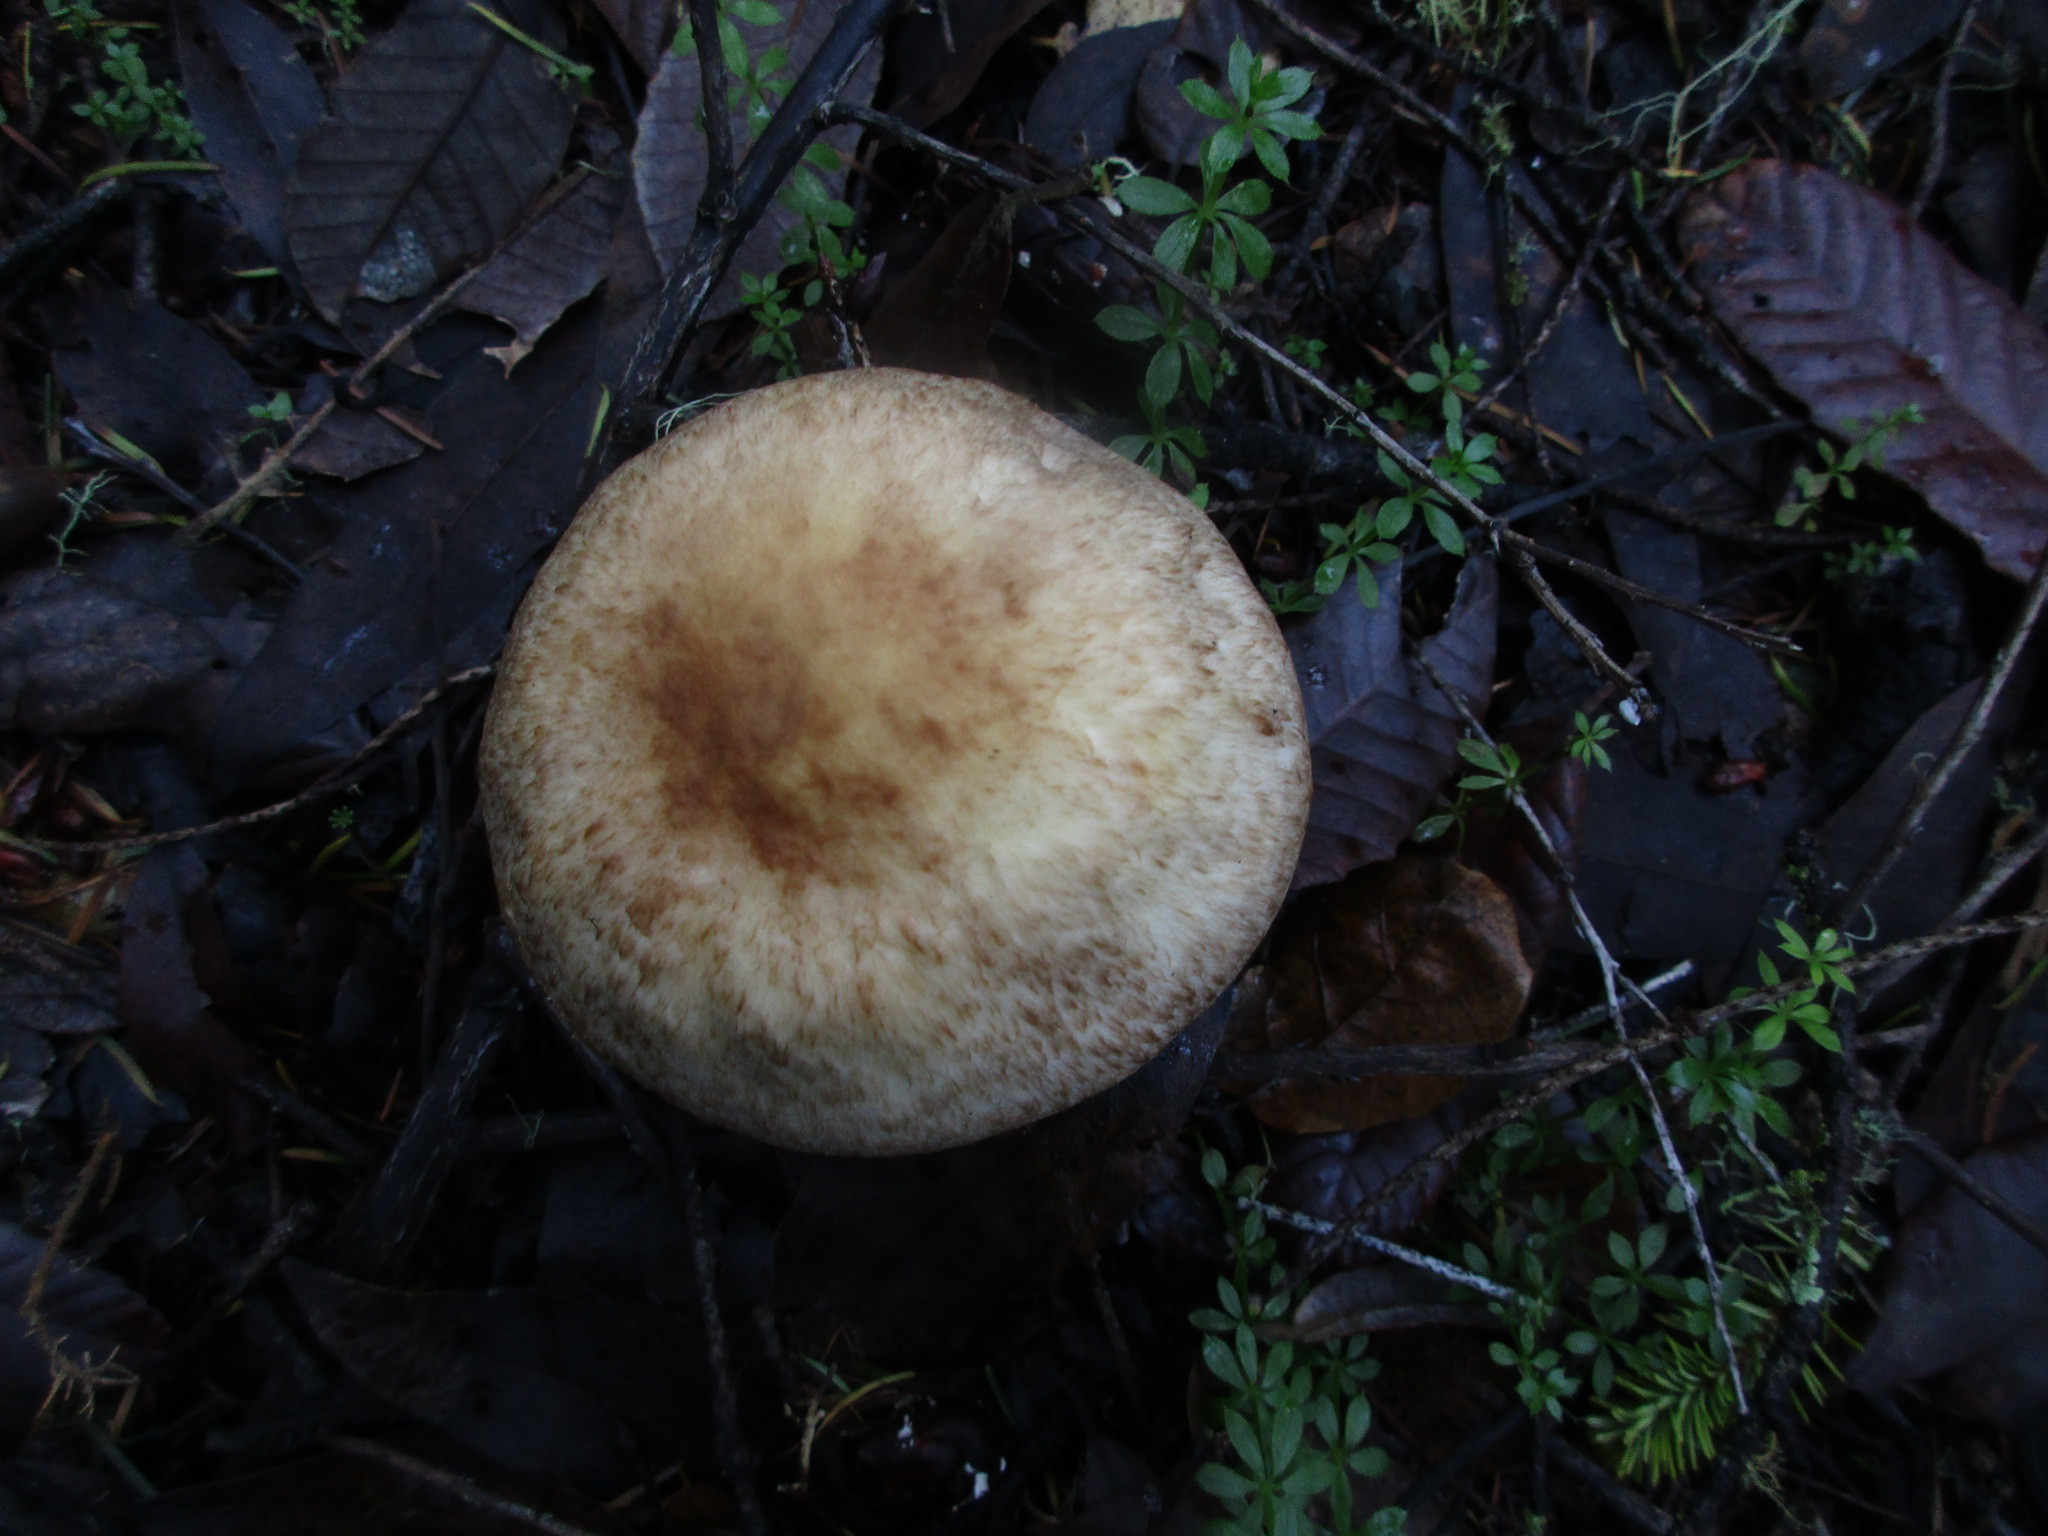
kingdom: Fungi
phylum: Basidiomycota
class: Agaricomycetes
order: Agaricales
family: Agaricaceae
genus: Agaricus
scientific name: Agaricus augustus
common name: Prince
